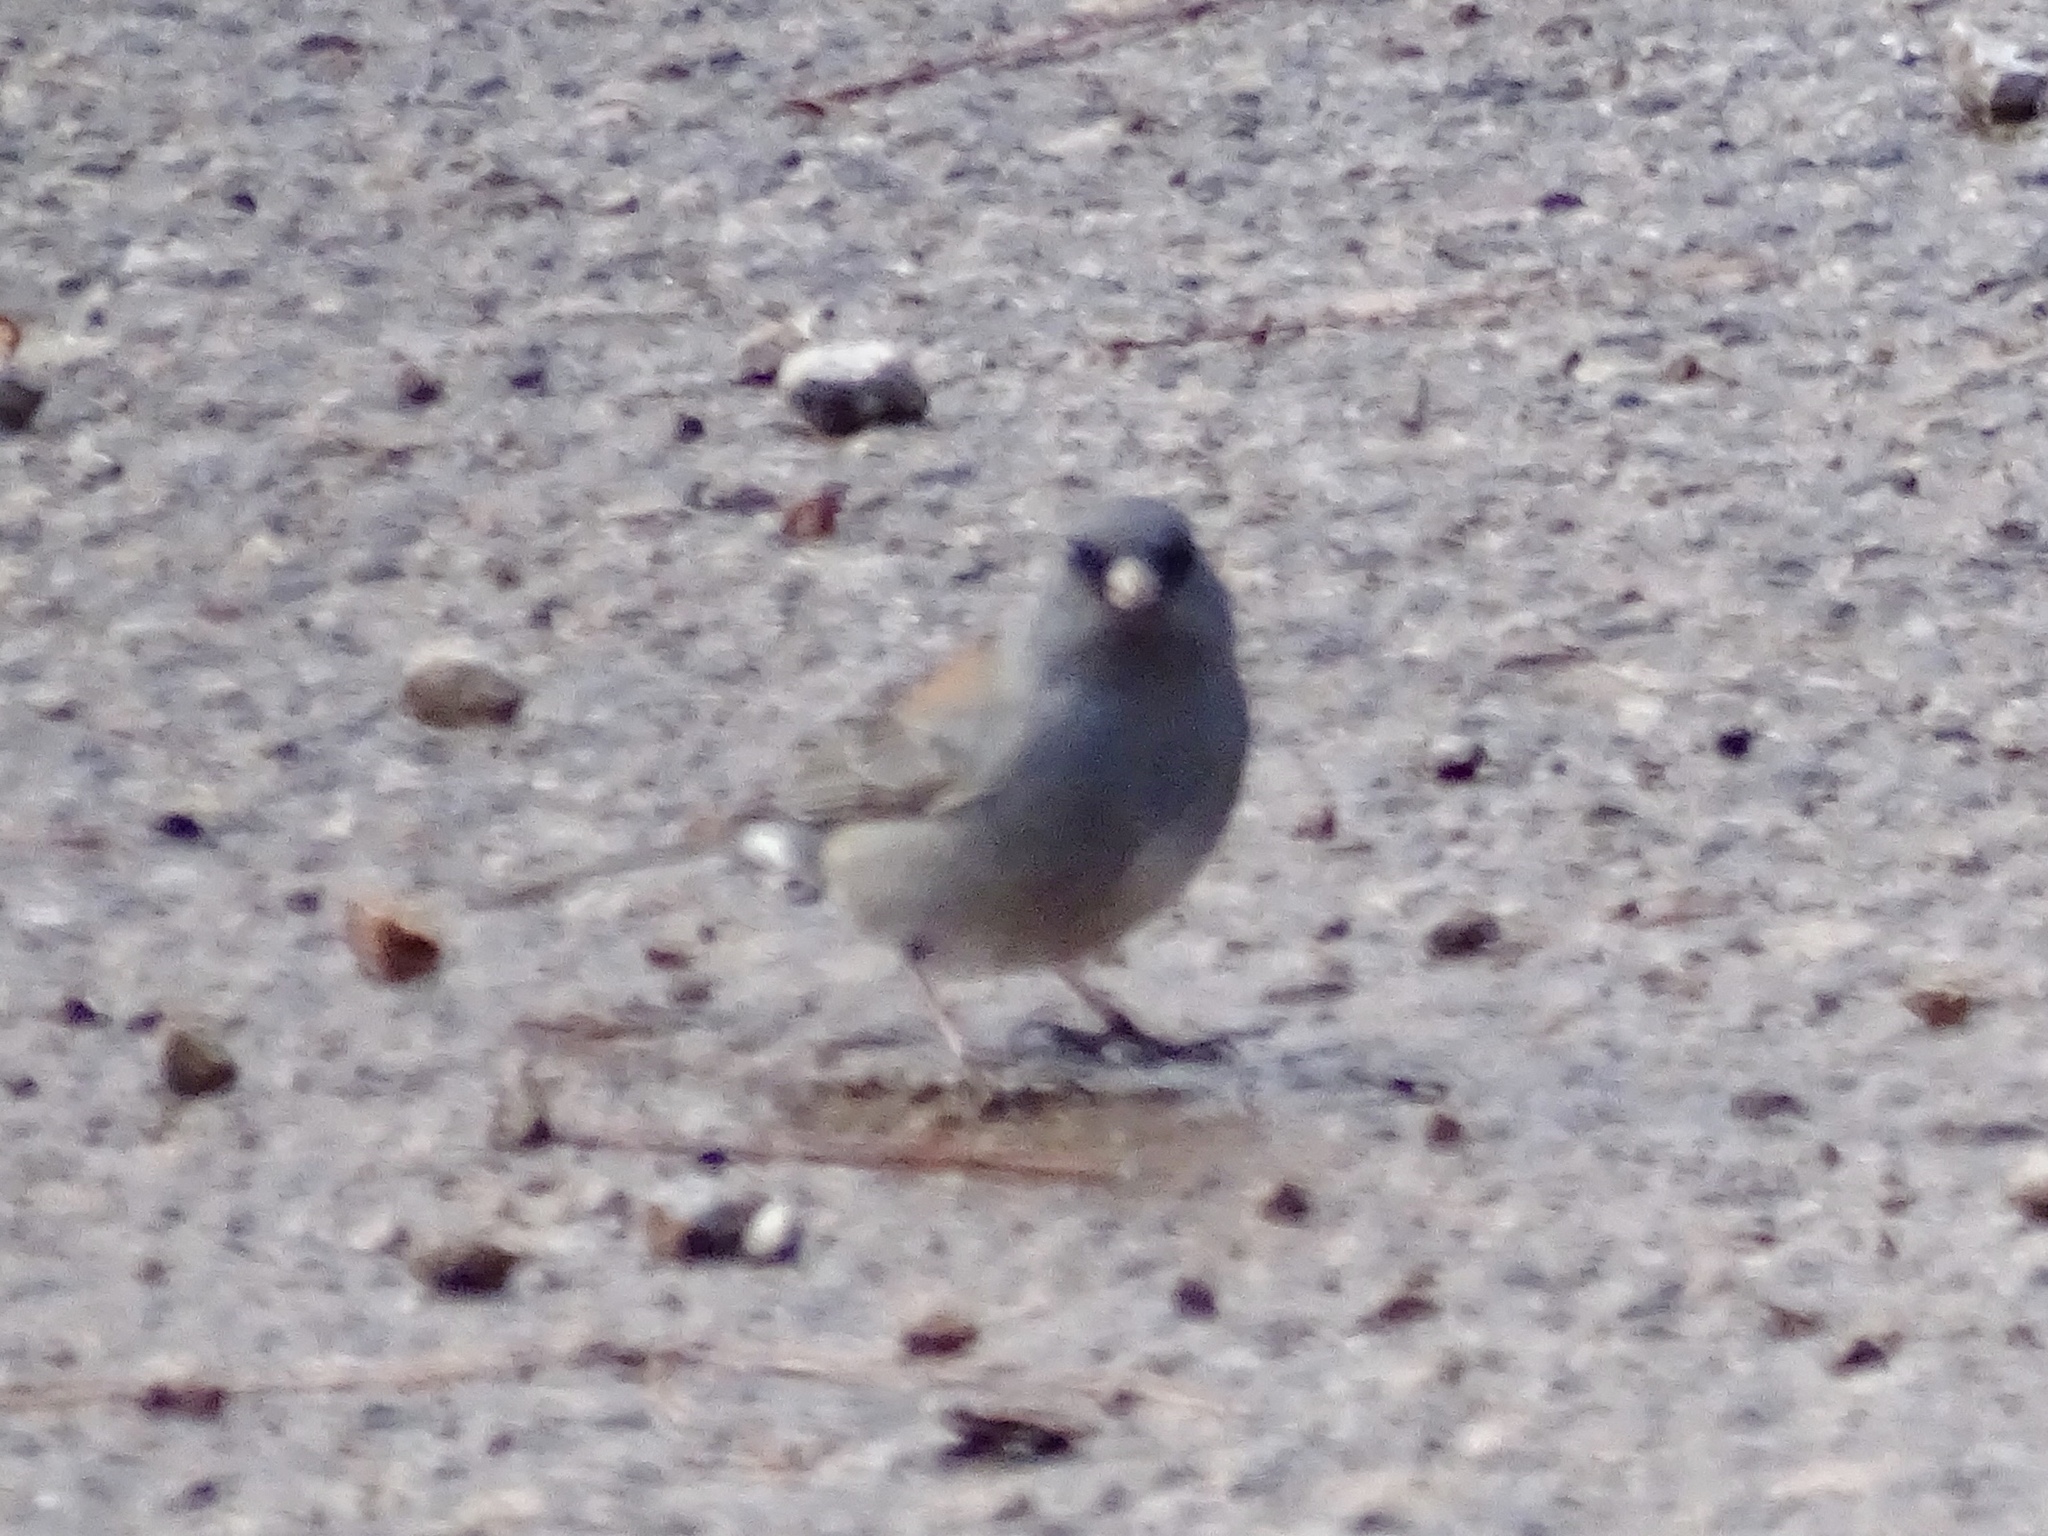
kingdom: Animalia
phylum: Chordata
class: Aves
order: Passeriformes
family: Passerellidae
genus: Junco
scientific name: Junco hyemalis
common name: Dark-eyed junco
